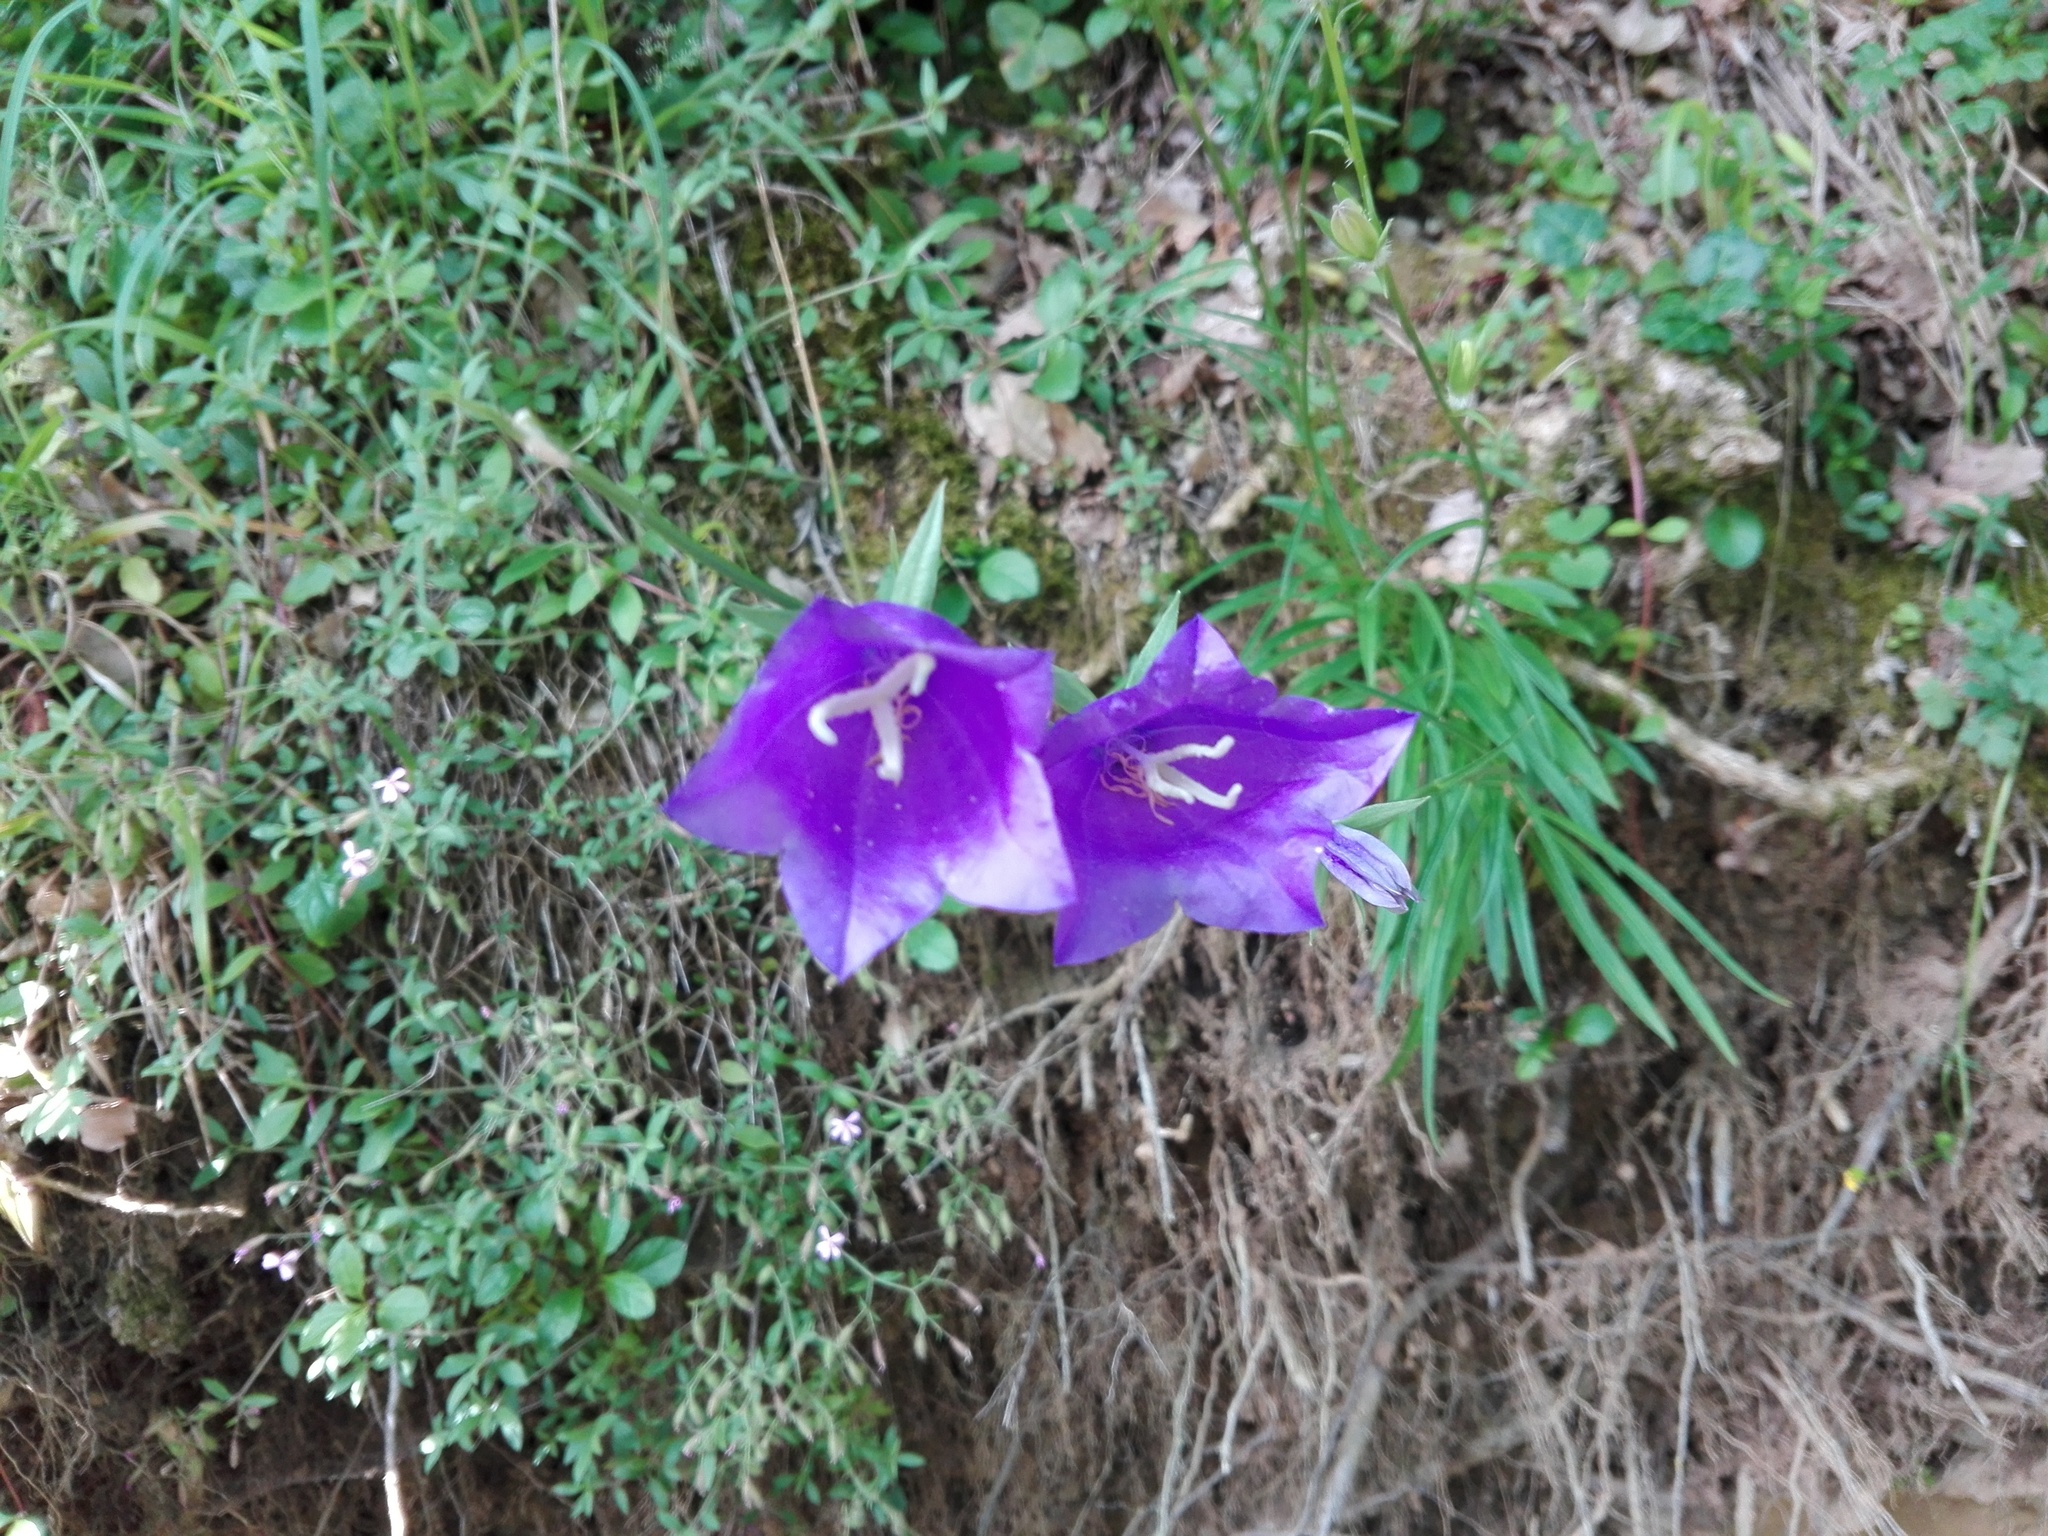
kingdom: Plantae
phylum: Tracheophyta
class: Magnoliopsida
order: Asterales
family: Campanulaceae
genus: Campanula
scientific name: Campanula persicifolia
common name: Peach-leaved bellflower
